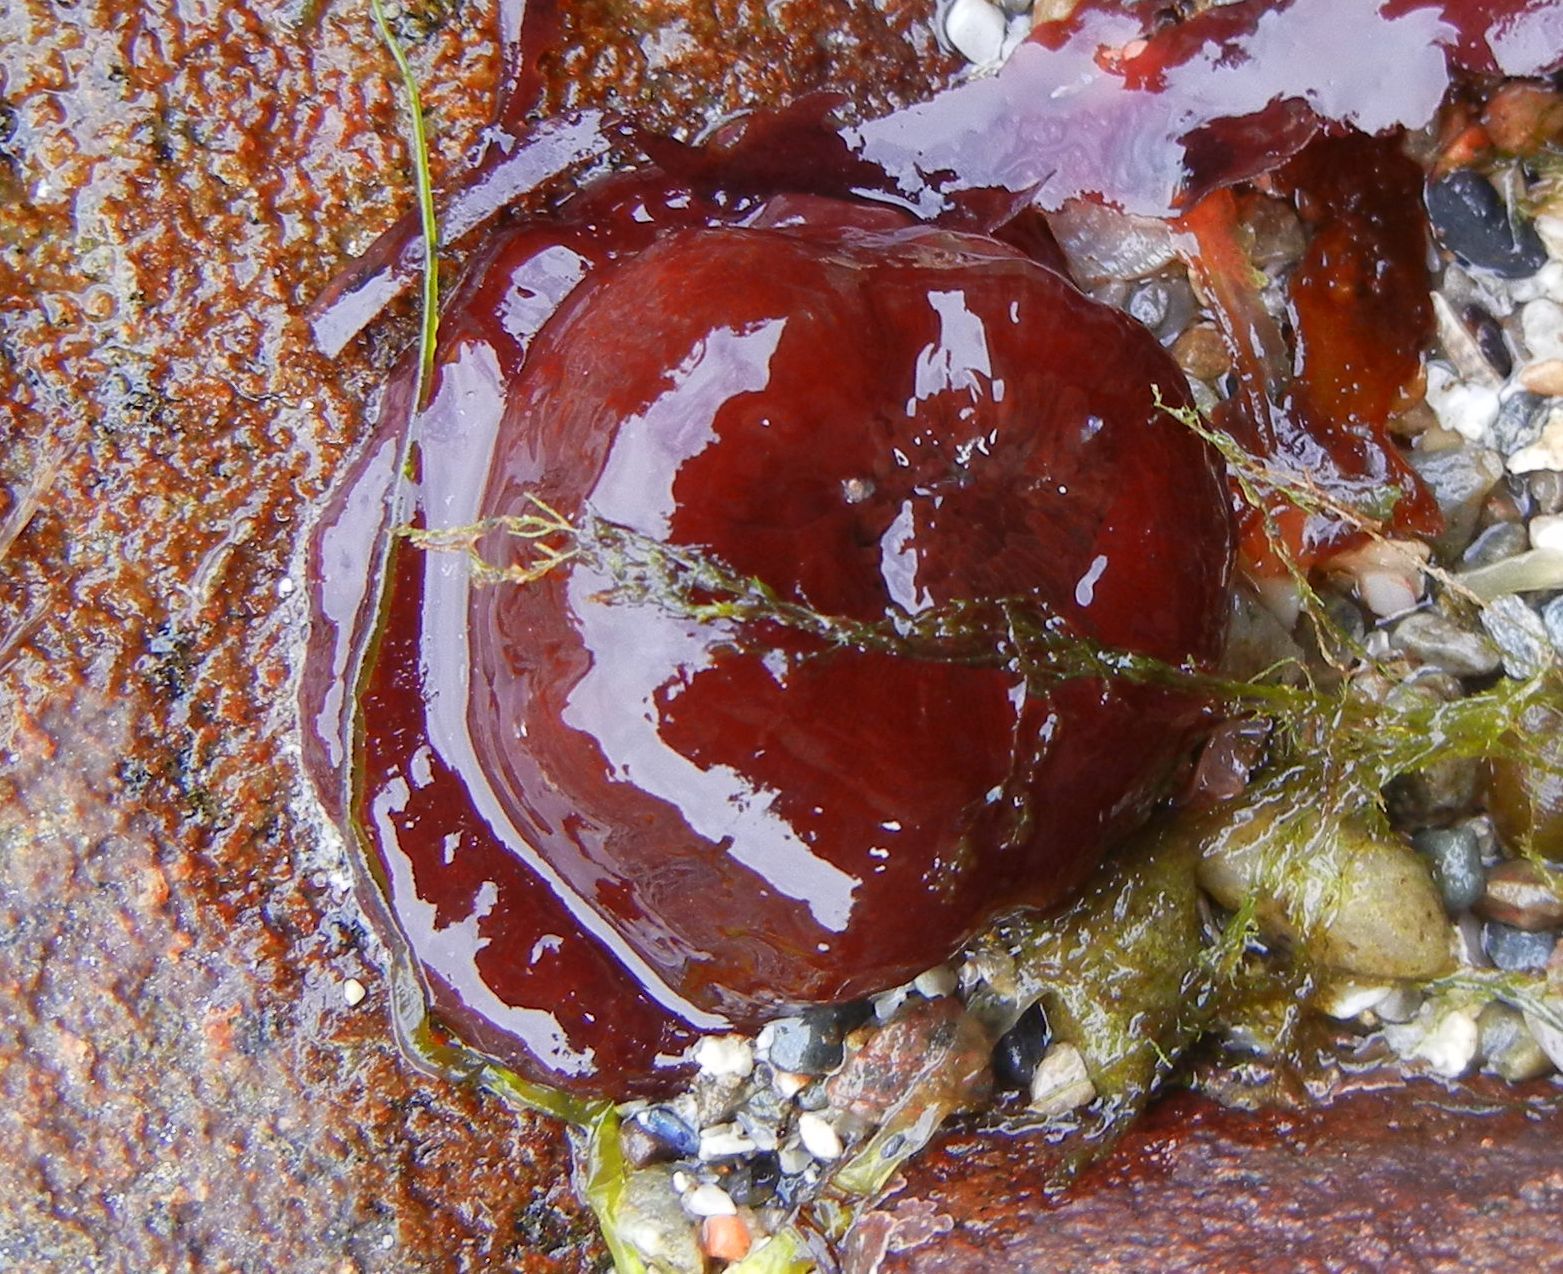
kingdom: Animalia
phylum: Cnidaria
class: Anthozoa
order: Actiniaria
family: Actiniidae
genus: Actinia
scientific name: Actinia equina
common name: Beadlet anemone
